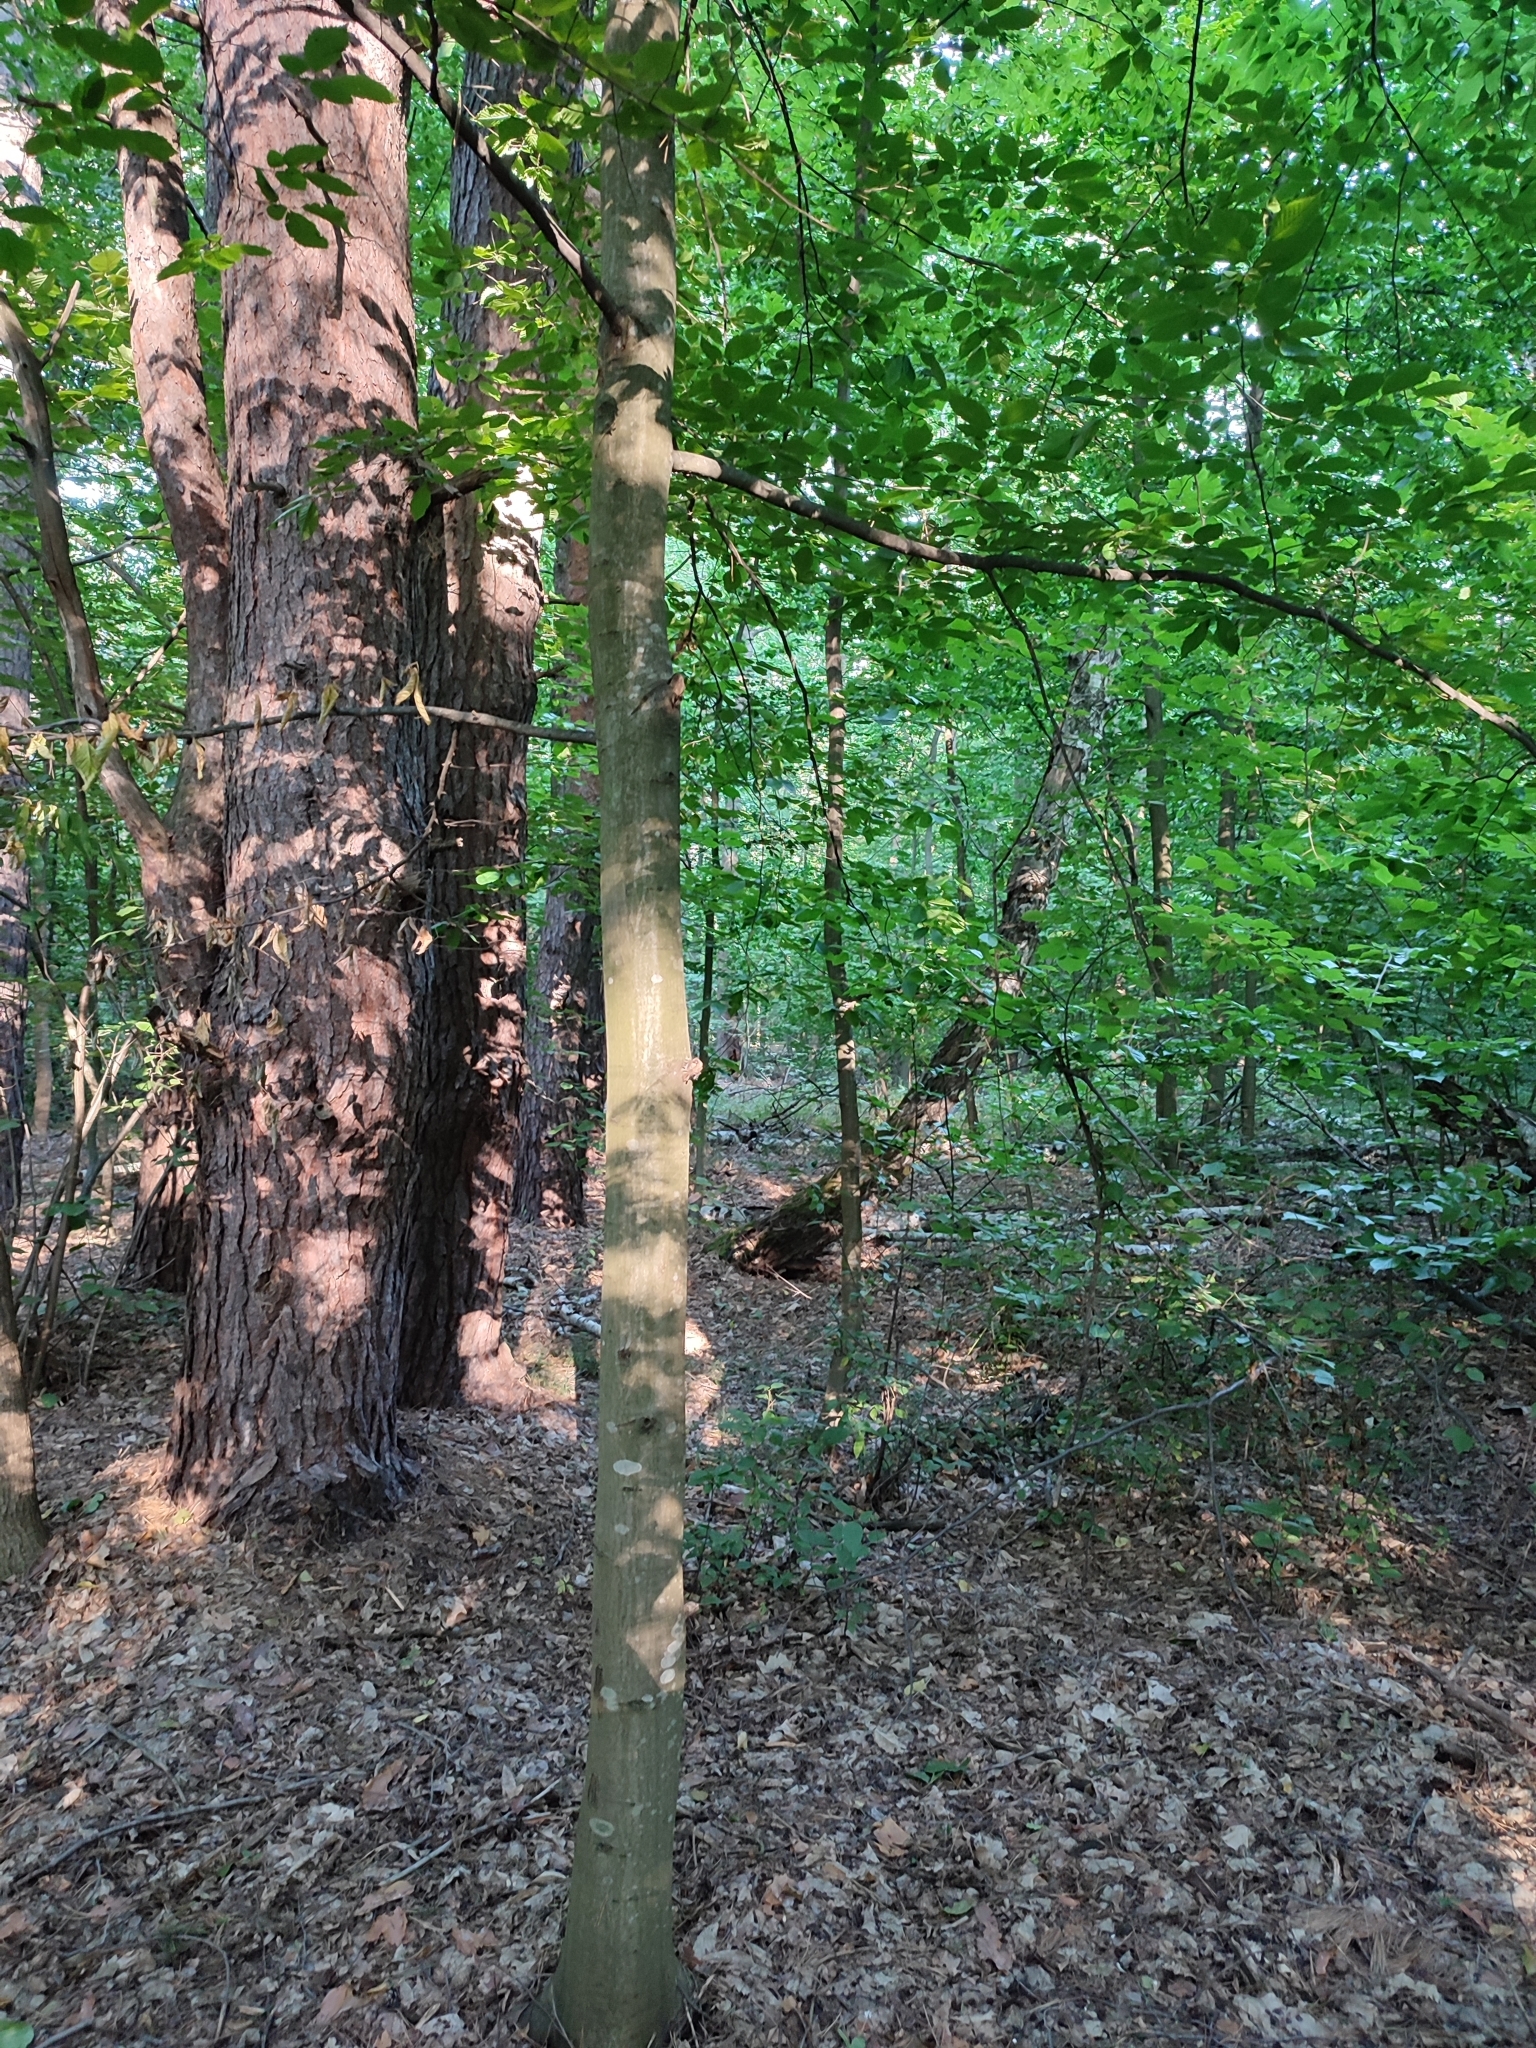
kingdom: Plantae
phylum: Tracheophyta
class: Magnoliopsida
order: Fagales
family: Betulaceae
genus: Carpinus
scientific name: Carpinus betulus
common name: Hornbeam
